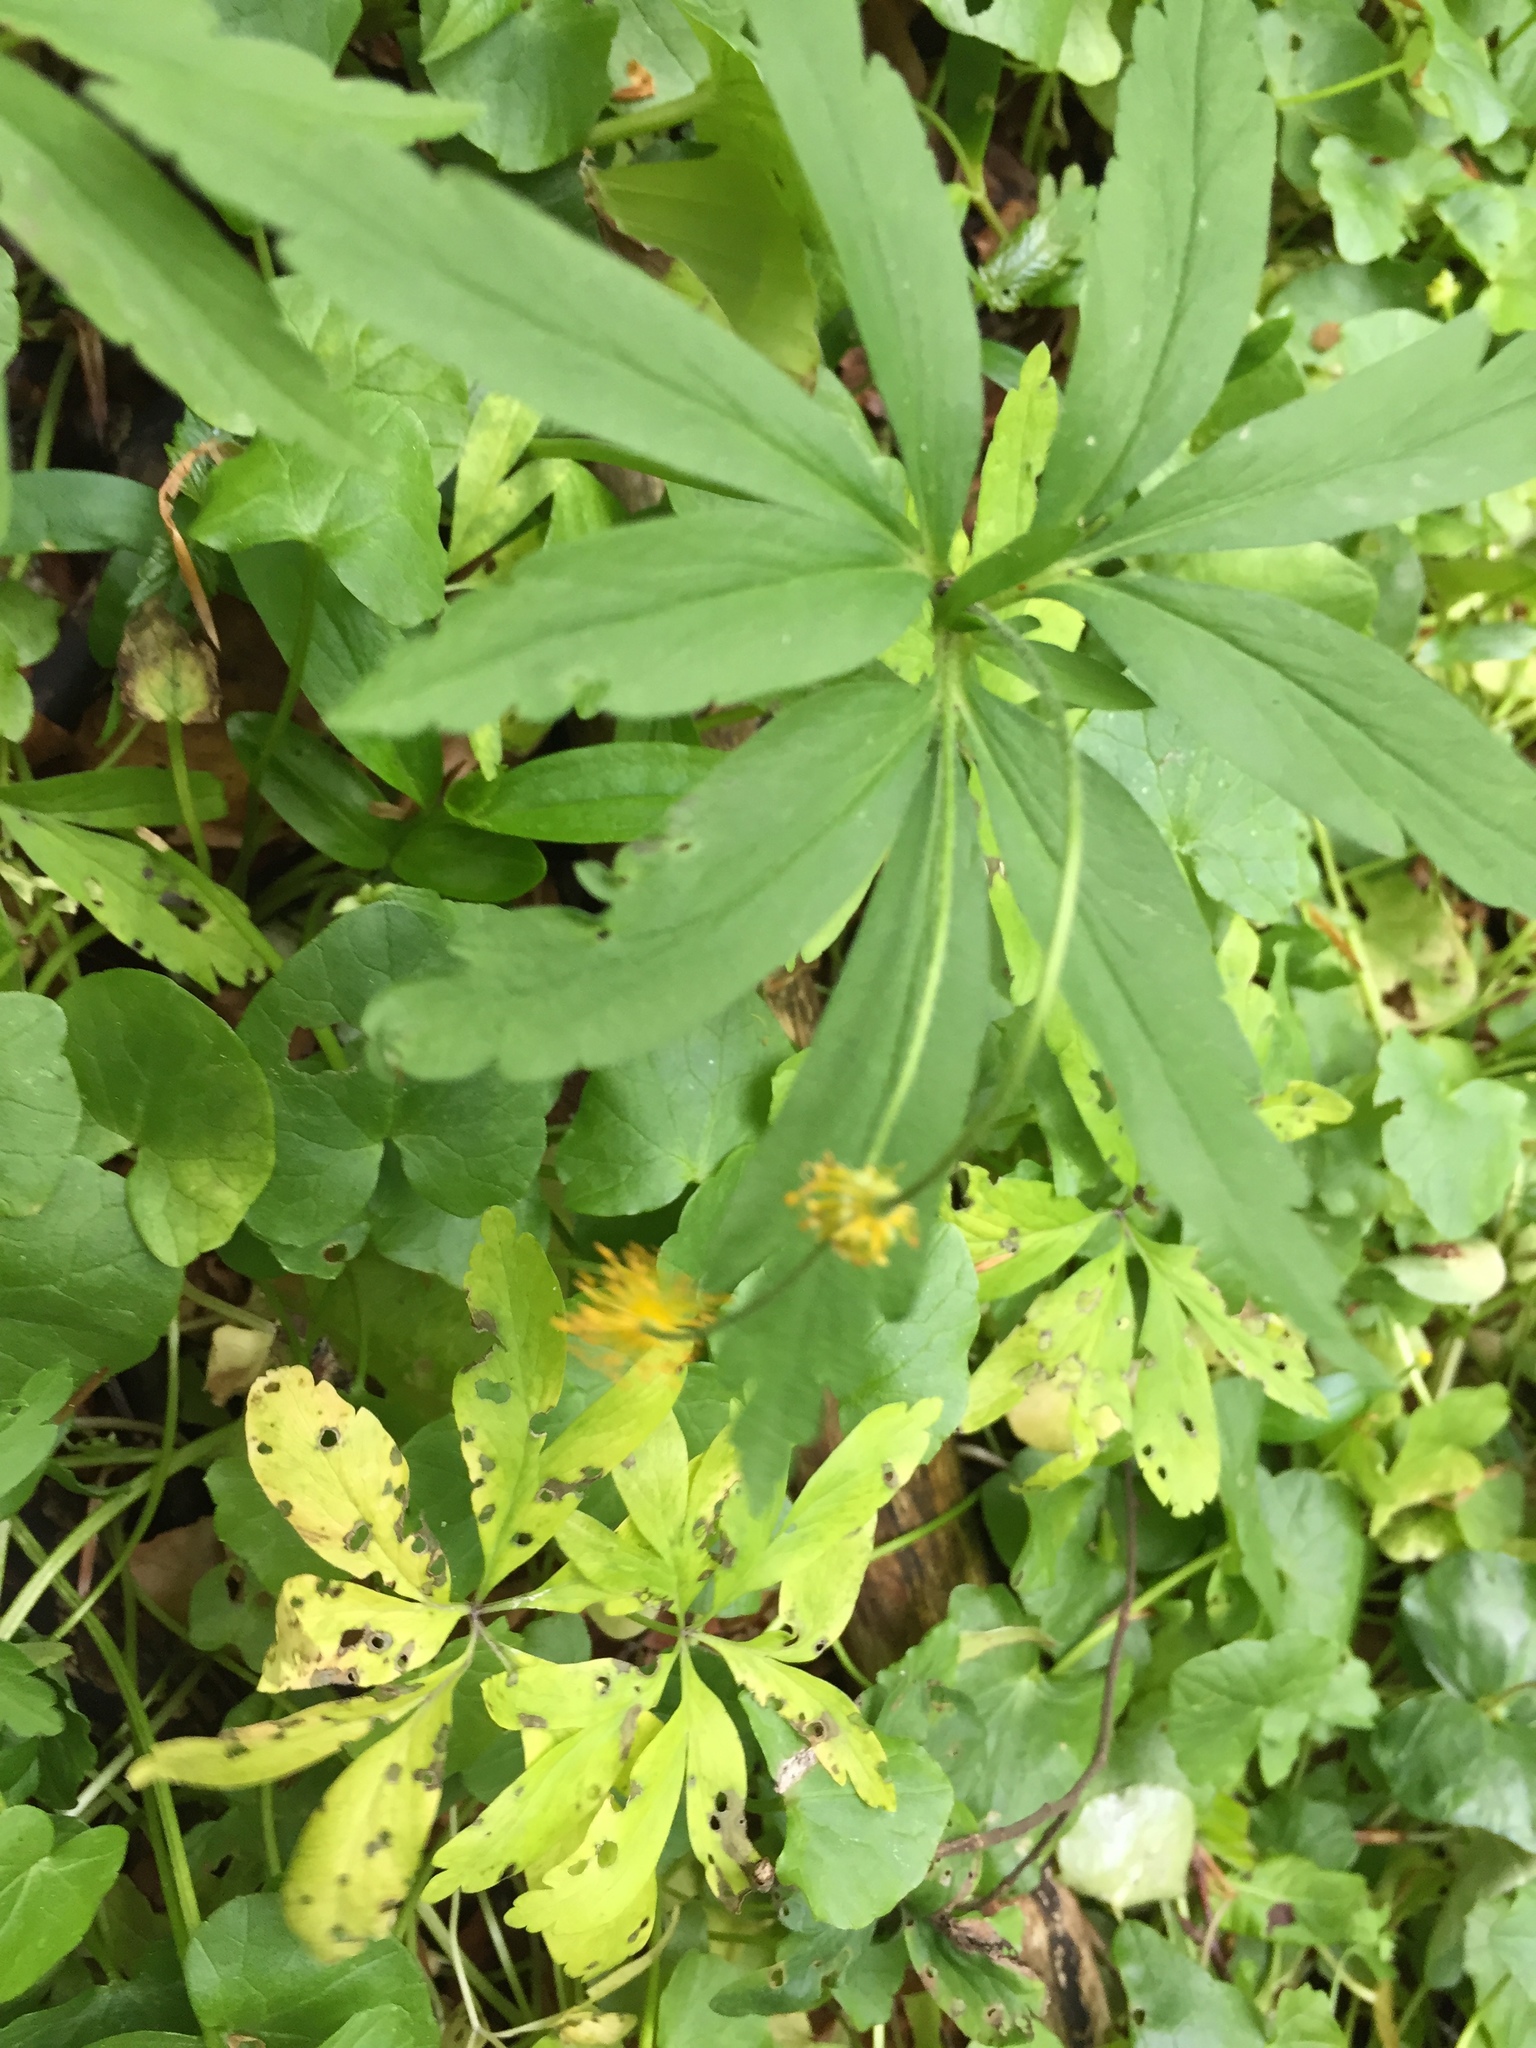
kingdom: Plantae
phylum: Tracheophyta
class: Magnoliopsida
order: Ranunculales
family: Ranunculaceae
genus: Anemone
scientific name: Anemone ranunculoides
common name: Yellow anemone
